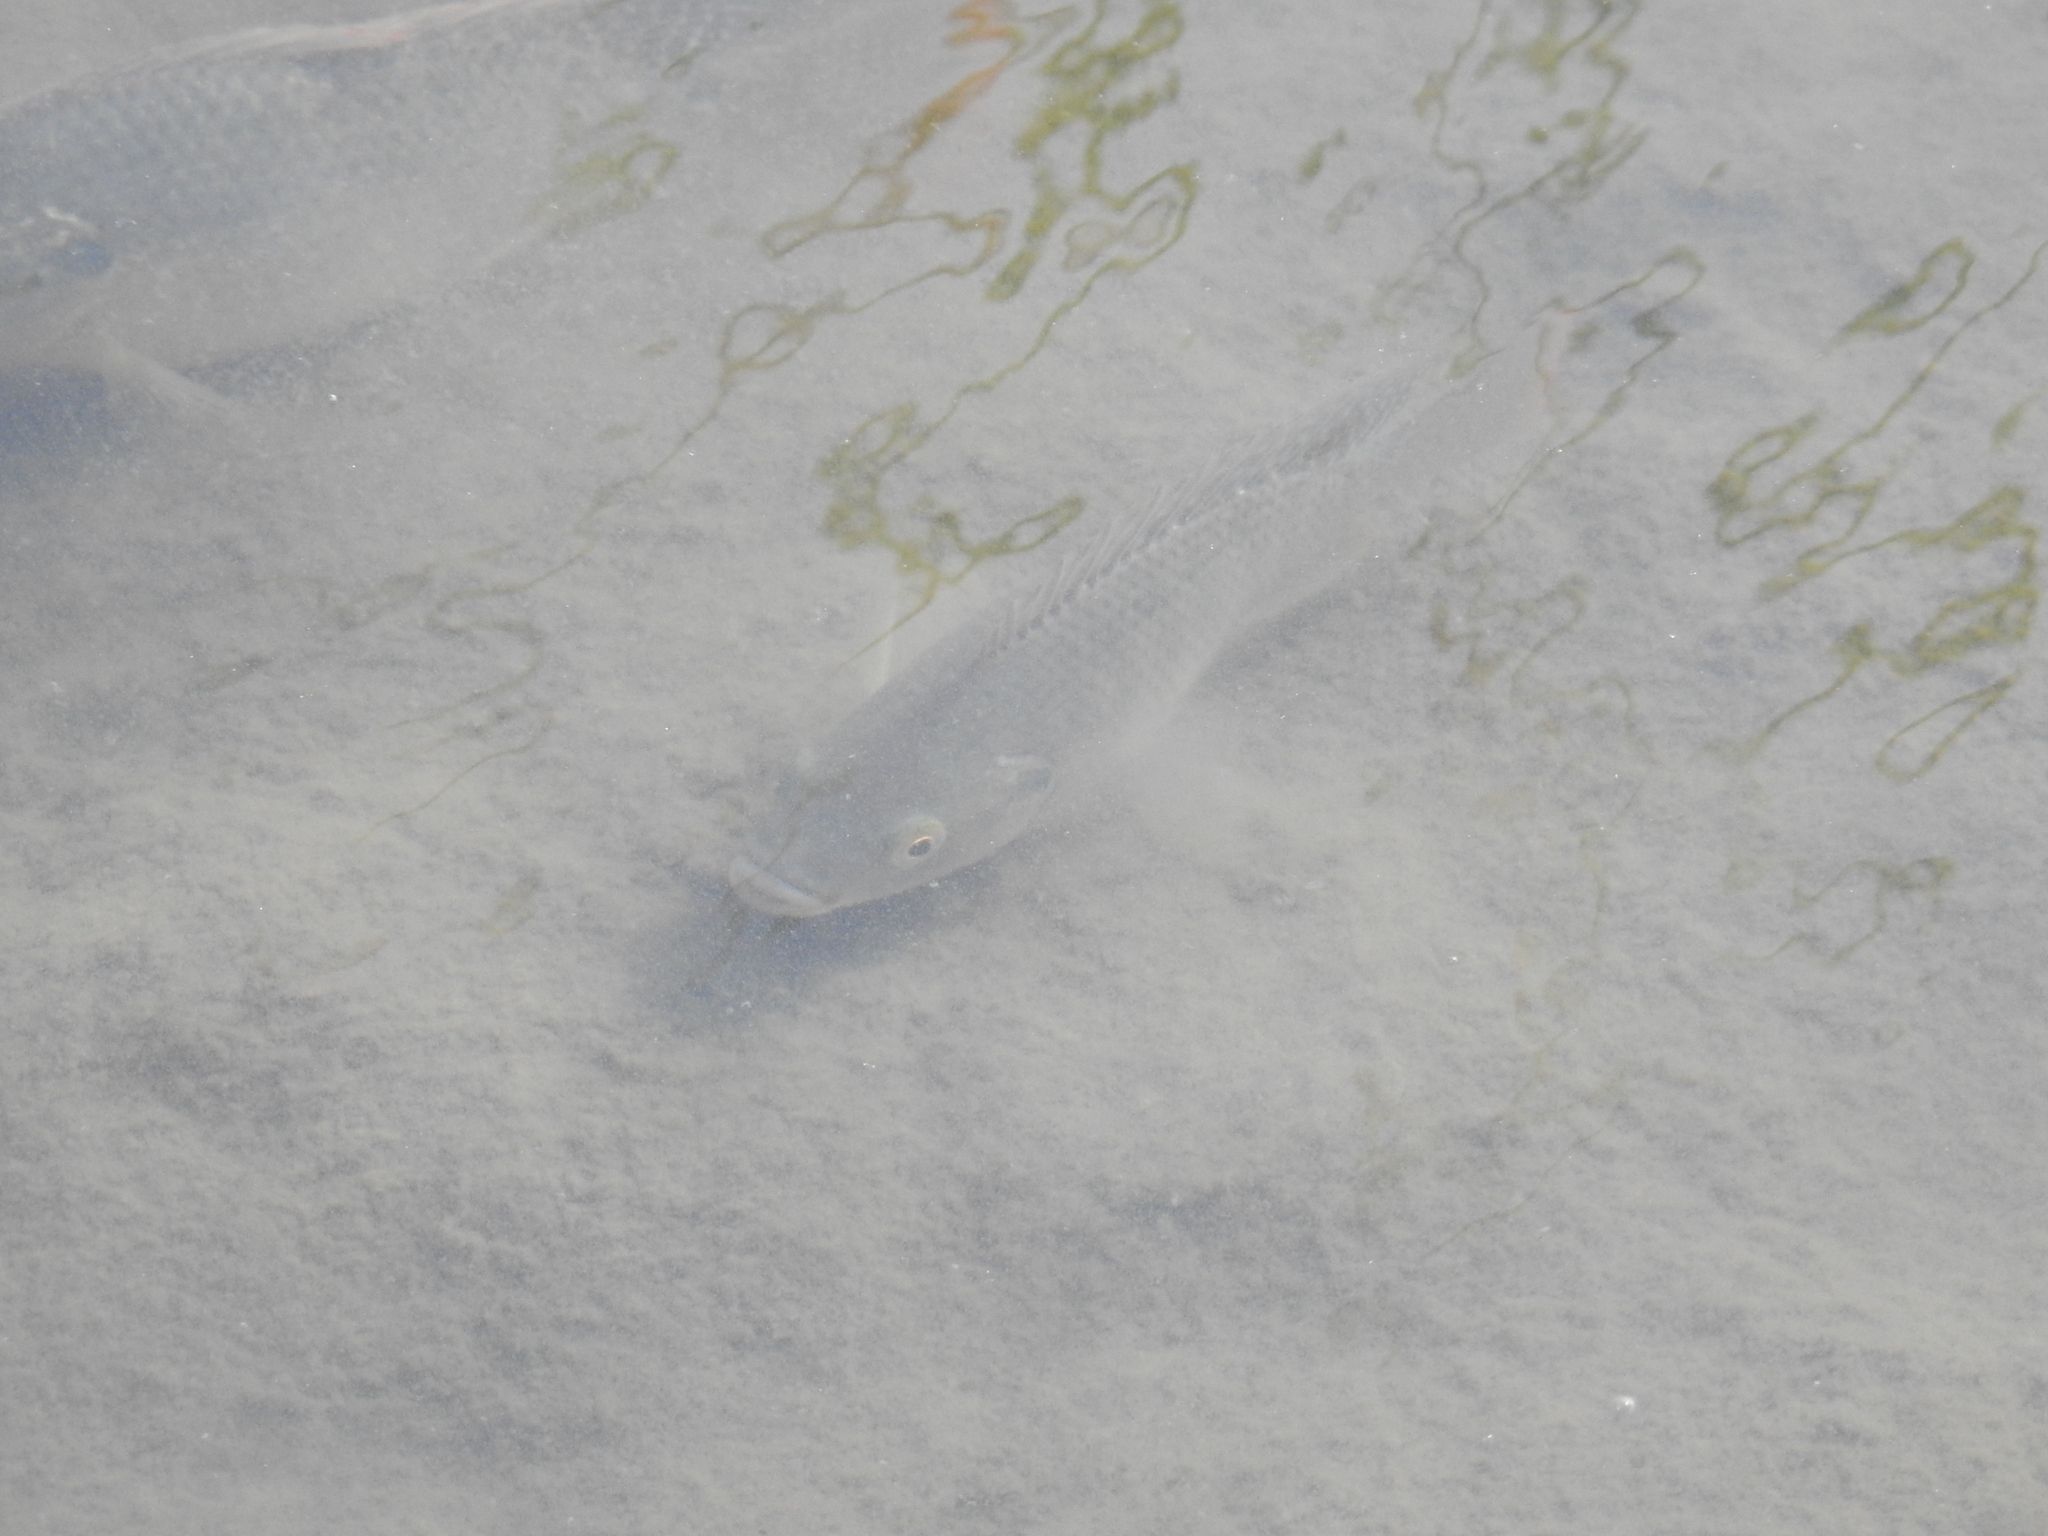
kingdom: Animalia
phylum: Chordata
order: Perciformes
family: Cichlidae
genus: Oreochromis
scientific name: Oreochromis
